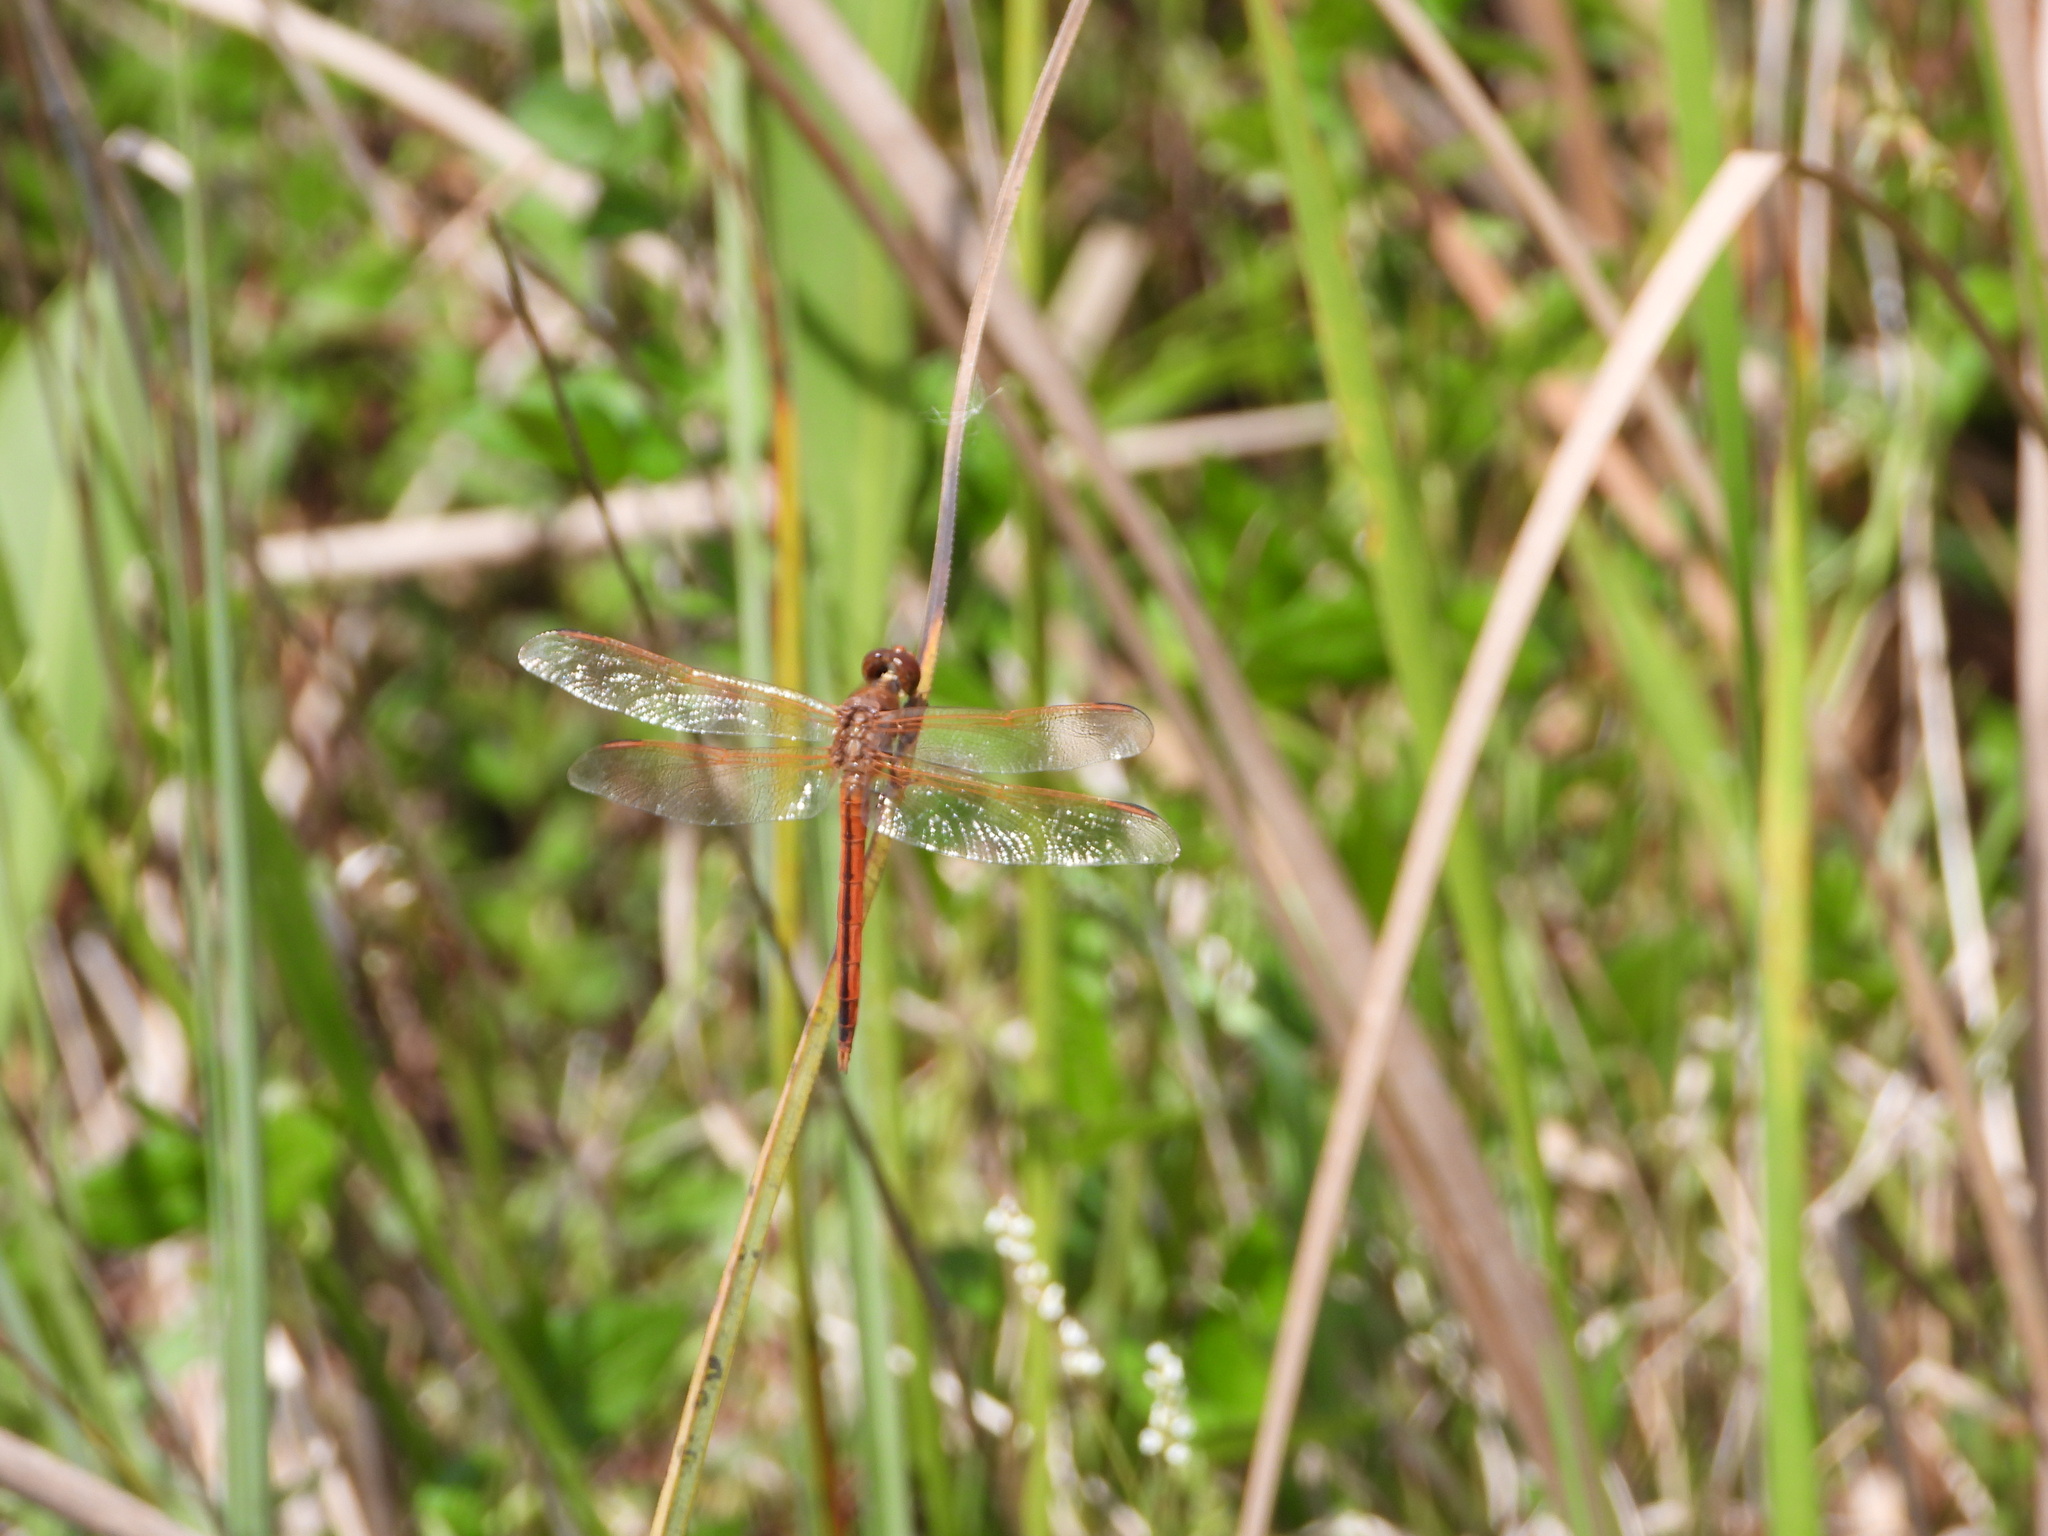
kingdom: Animalia
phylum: Arthropoda
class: Insecta
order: Odonata
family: Libellulidae
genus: Libellula
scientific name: Libellula needhami
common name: Needham's skimmer
